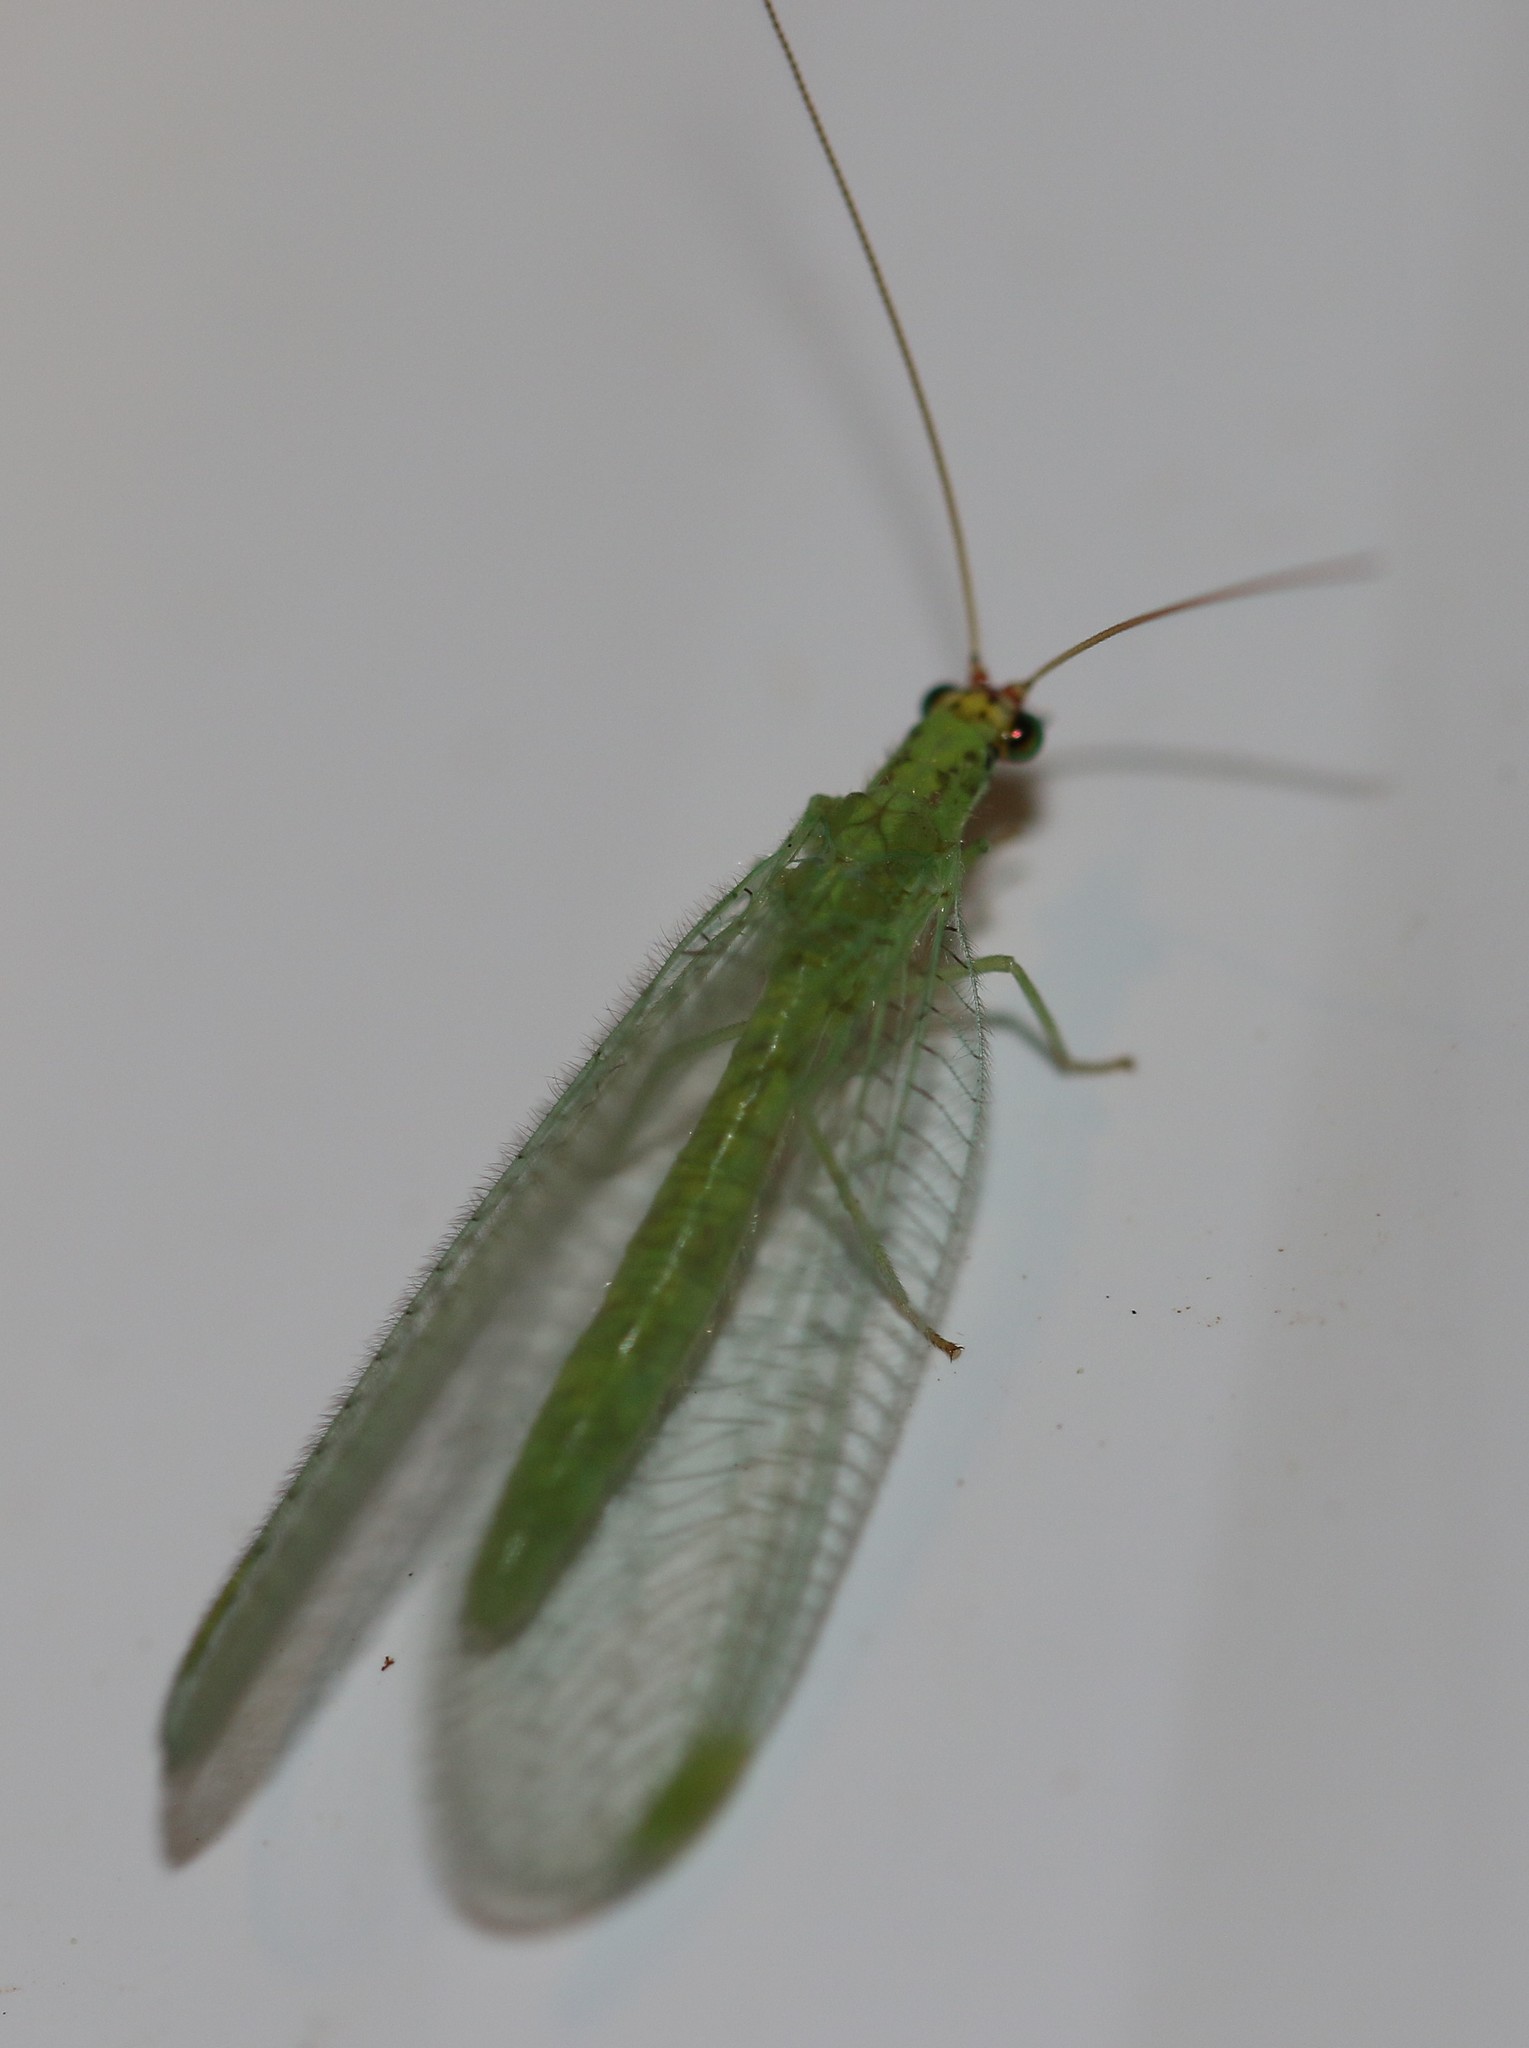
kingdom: Animalia
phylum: Arthropoda
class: Insecta
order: Neuroptera
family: Chrysopidae
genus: Chrysopa
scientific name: Chrysopa oculata
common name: Golden-eyed lacewing
